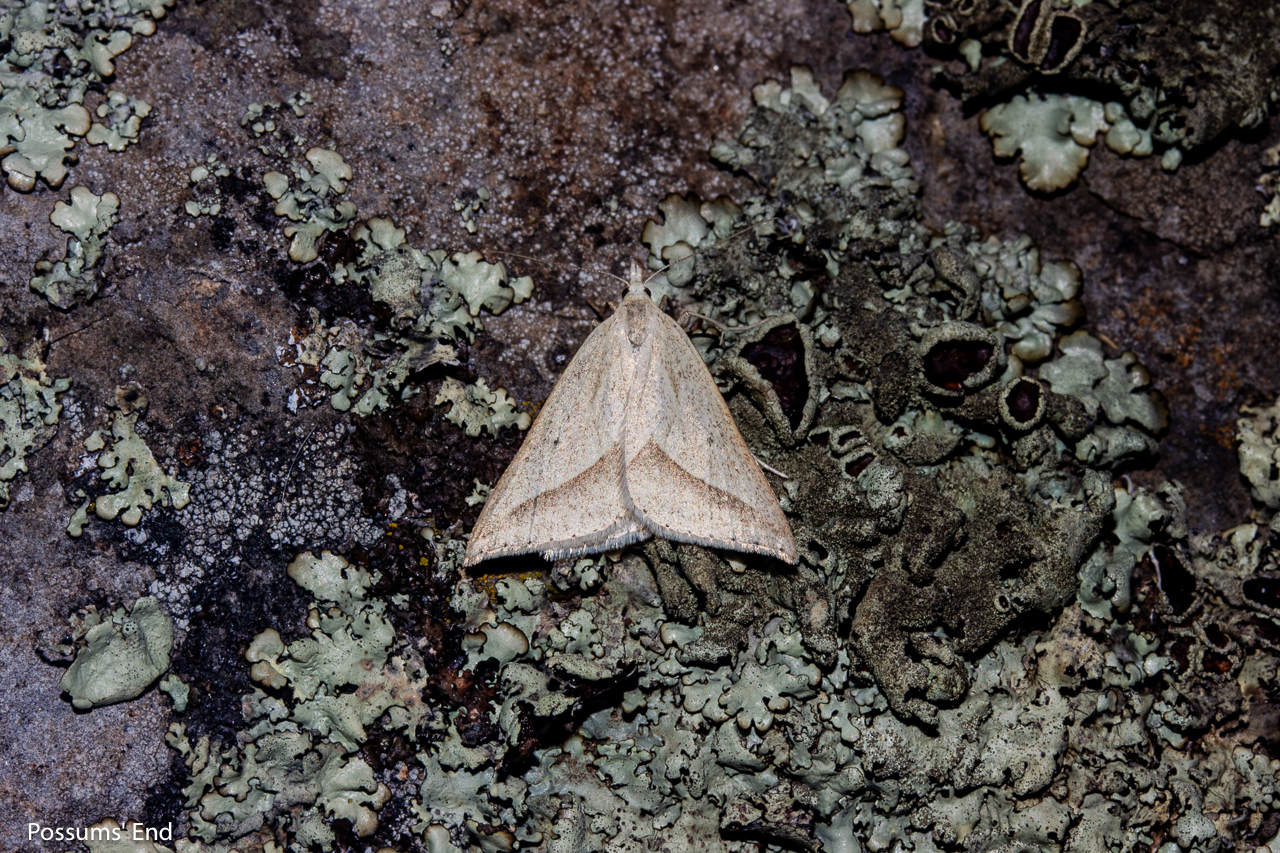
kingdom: Animalia
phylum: Arthropoda
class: Insecta
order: Lepidoptera
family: Geometridae
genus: Samana
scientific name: Samana acutata
